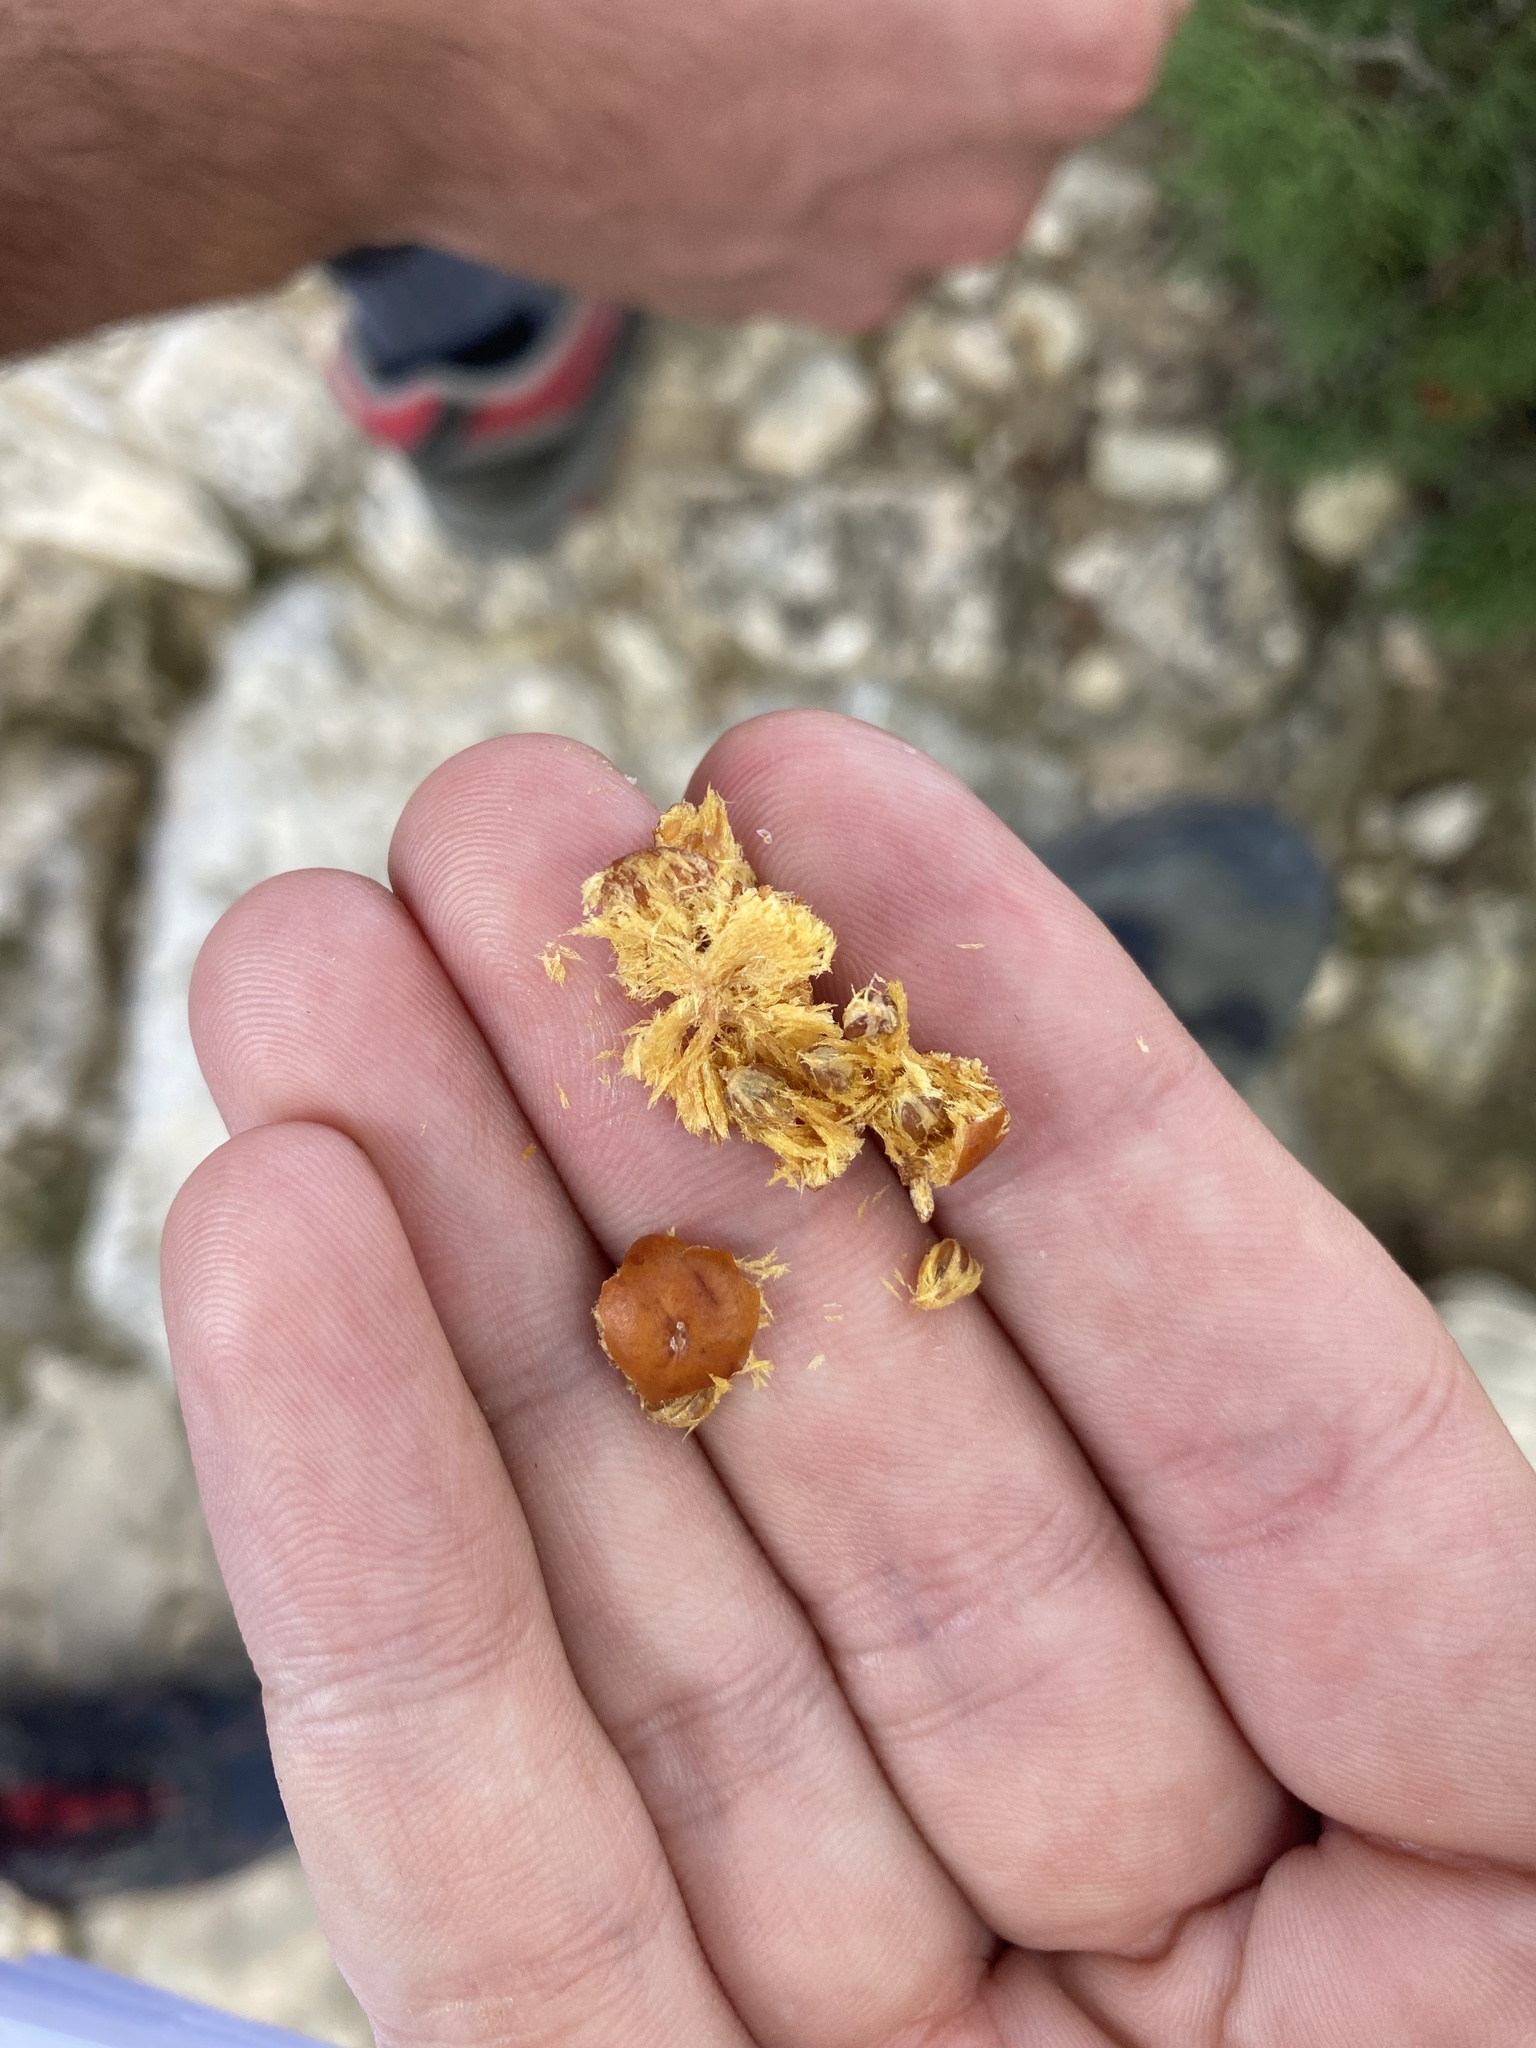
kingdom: Plantae
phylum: Tracheophyta
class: Pinopsida
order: Pinales
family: Cupressaceae
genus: Juniperus
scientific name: Juniperus phoenicea
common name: Phoenician juniper
